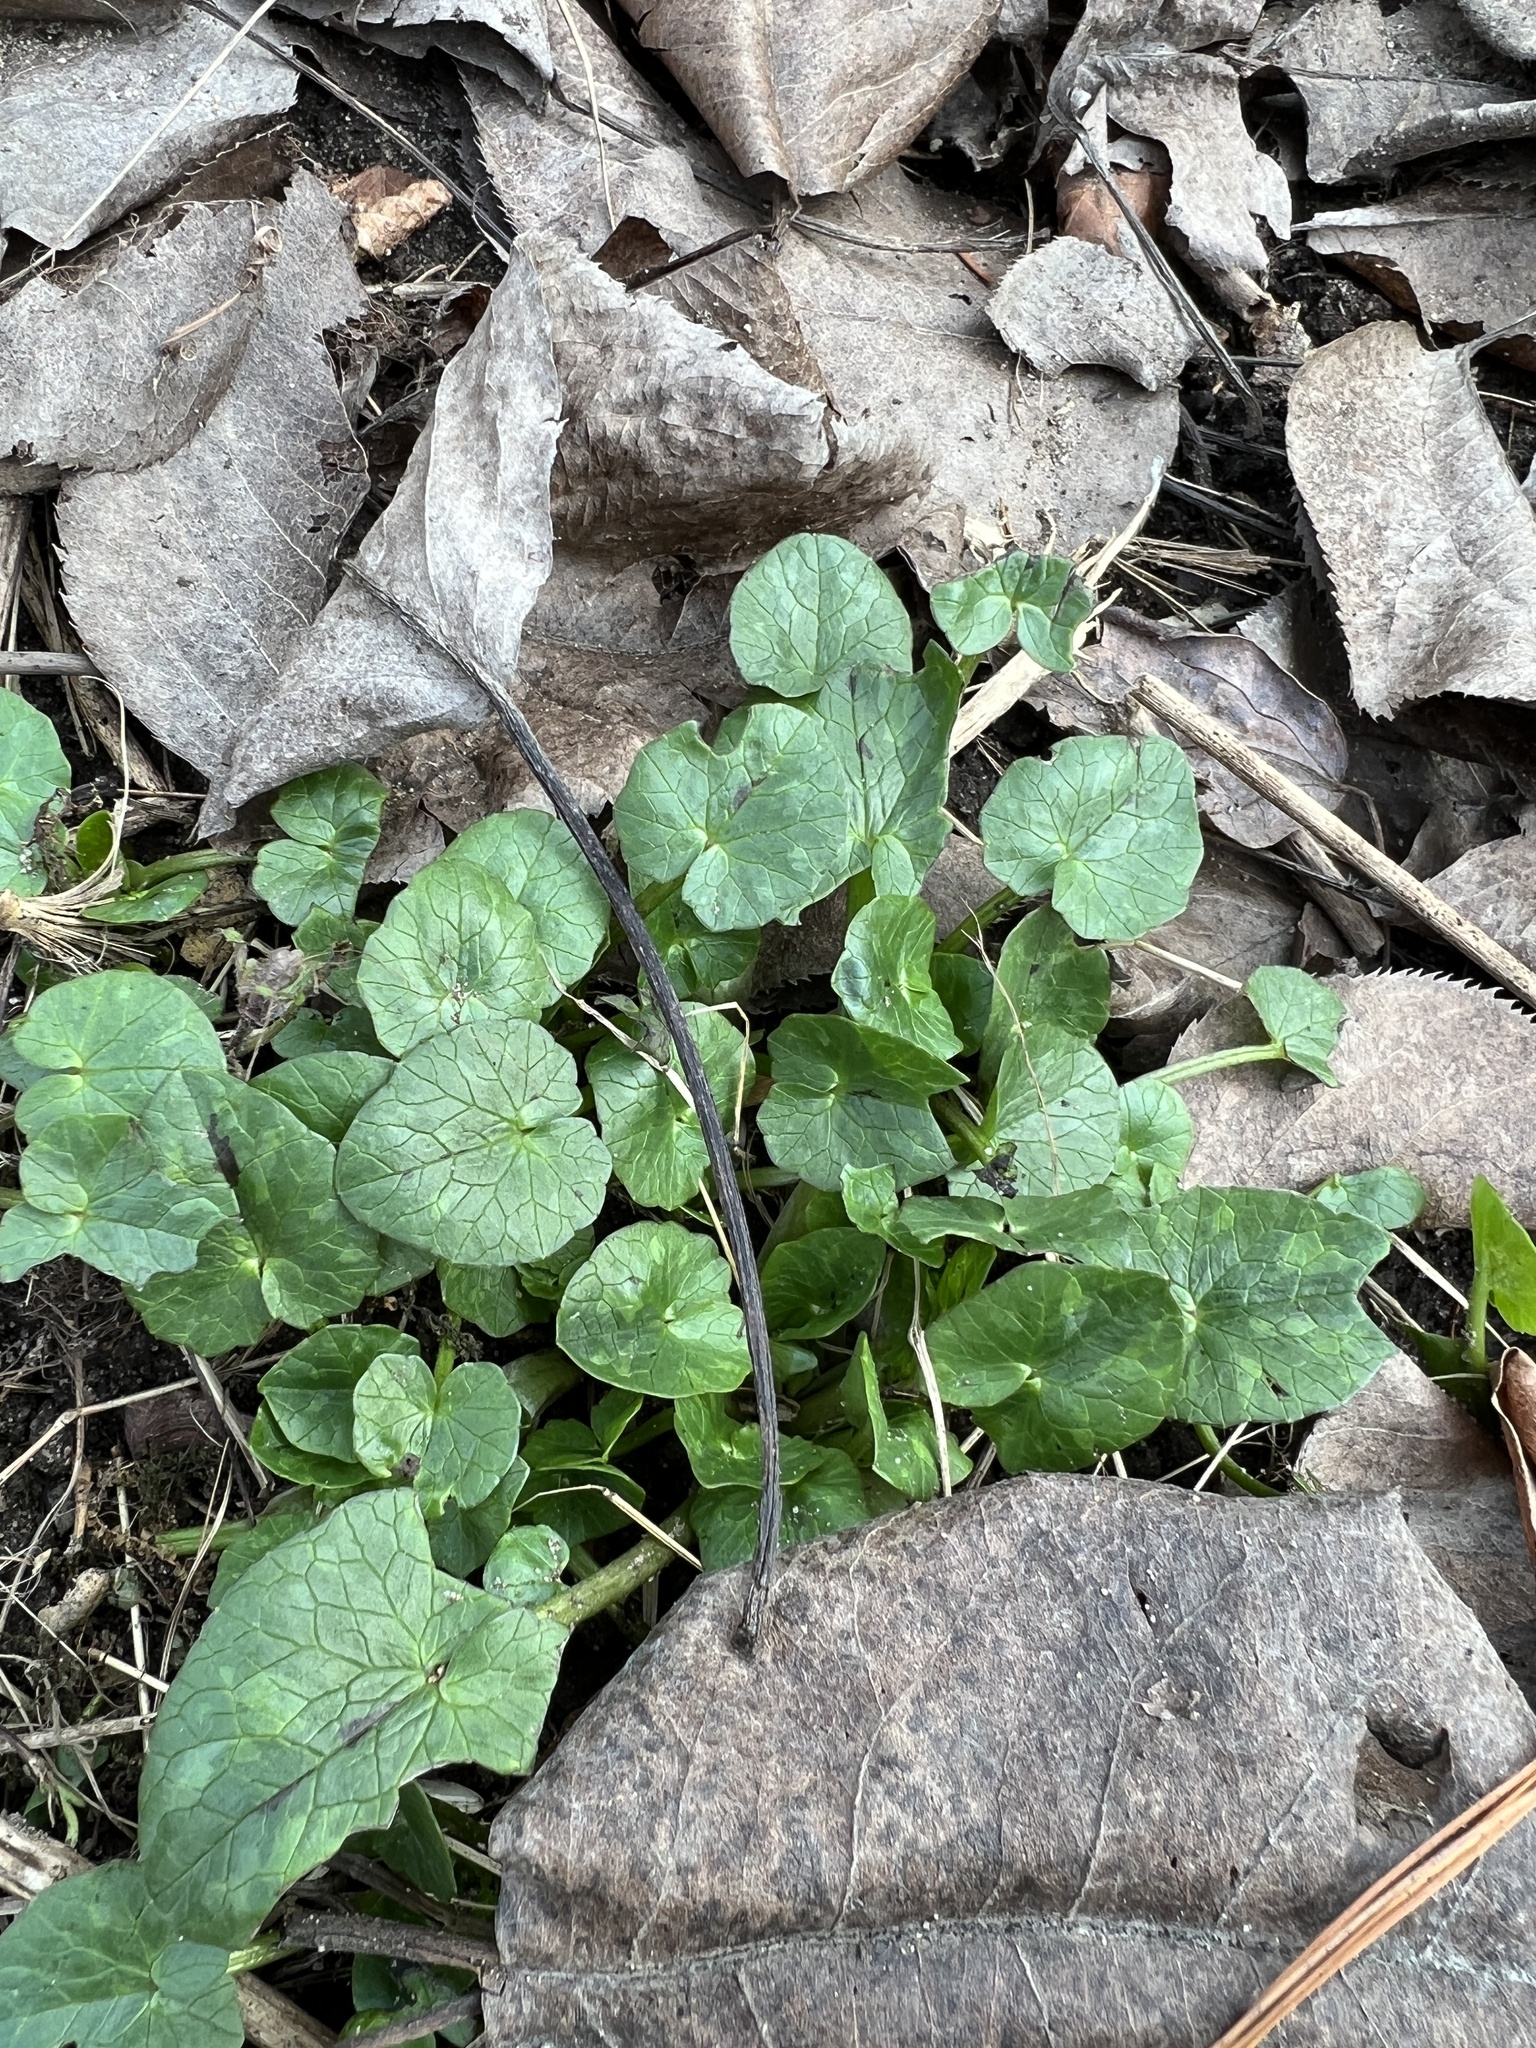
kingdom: Plantae
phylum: Tracheophyta
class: Magnoliopsida
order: Ranunculales
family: Ranunculaceae
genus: Ficaria
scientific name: Ficaria verna
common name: Lesser celandine
